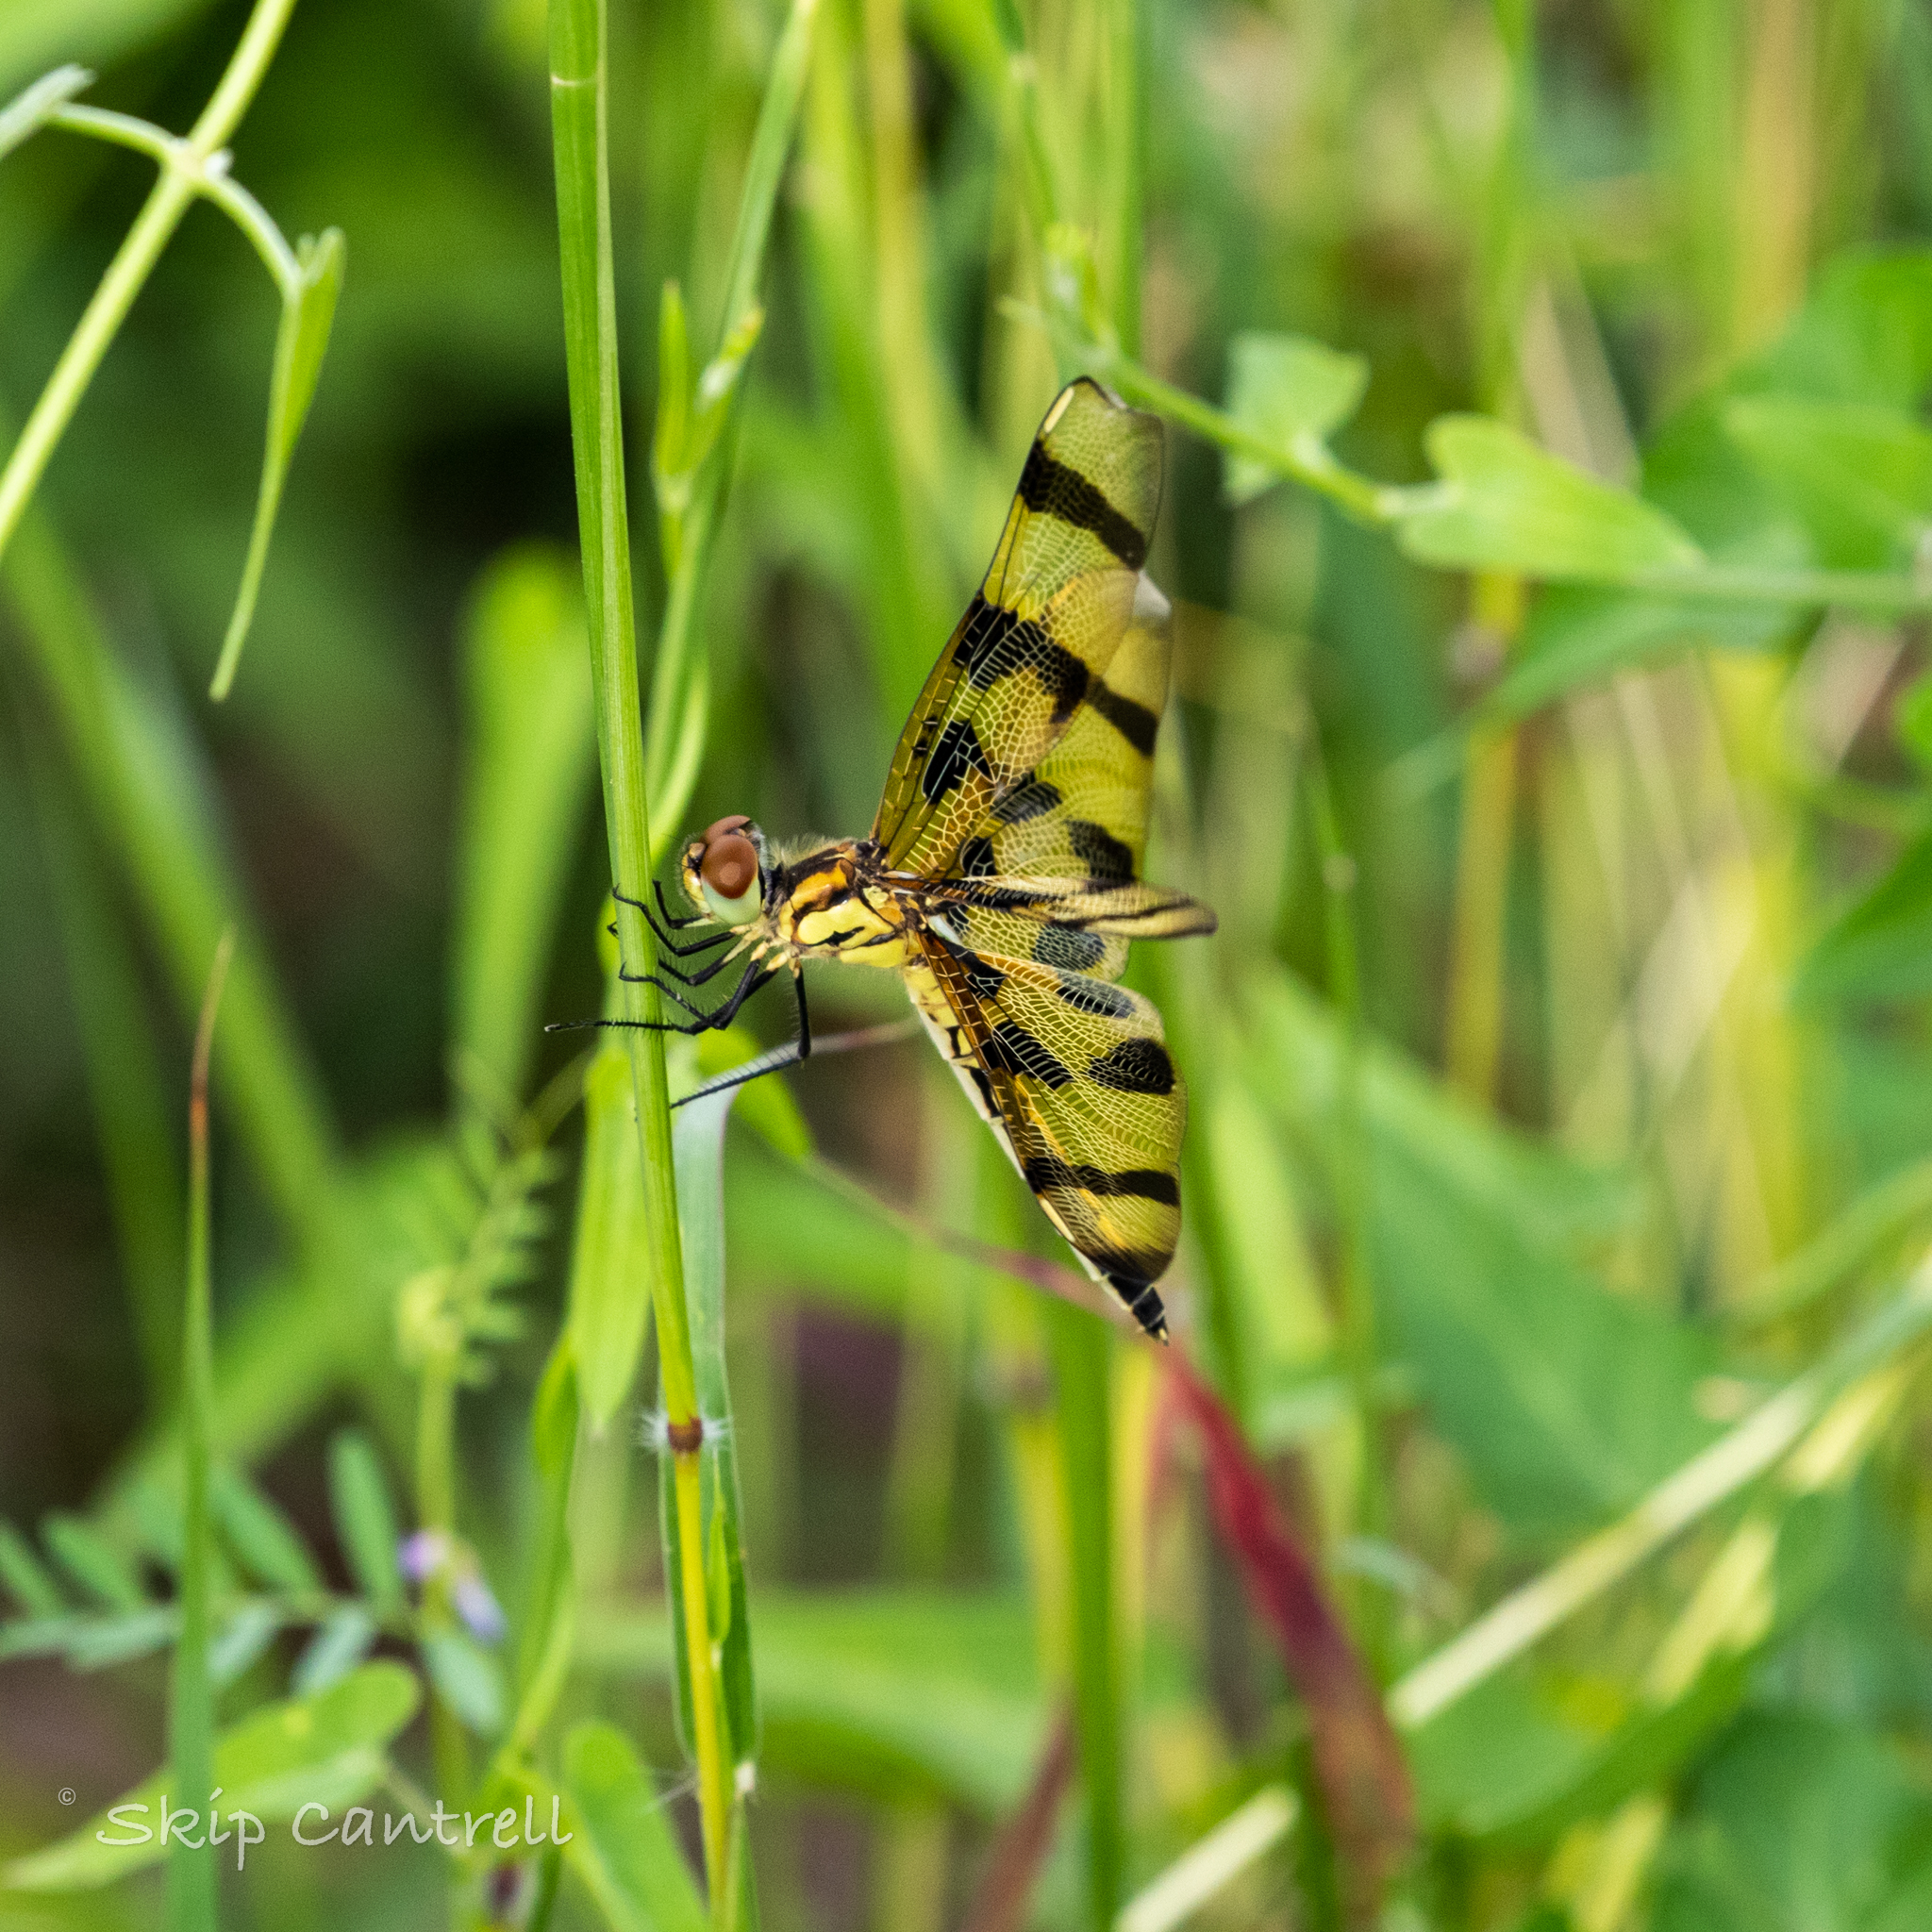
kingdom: Animalia
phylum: Arthropoda
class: Insecta
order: Odonata
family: Libellulidae
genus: Celithemis
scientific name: Celithemis eponina
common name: Halloween pennant
